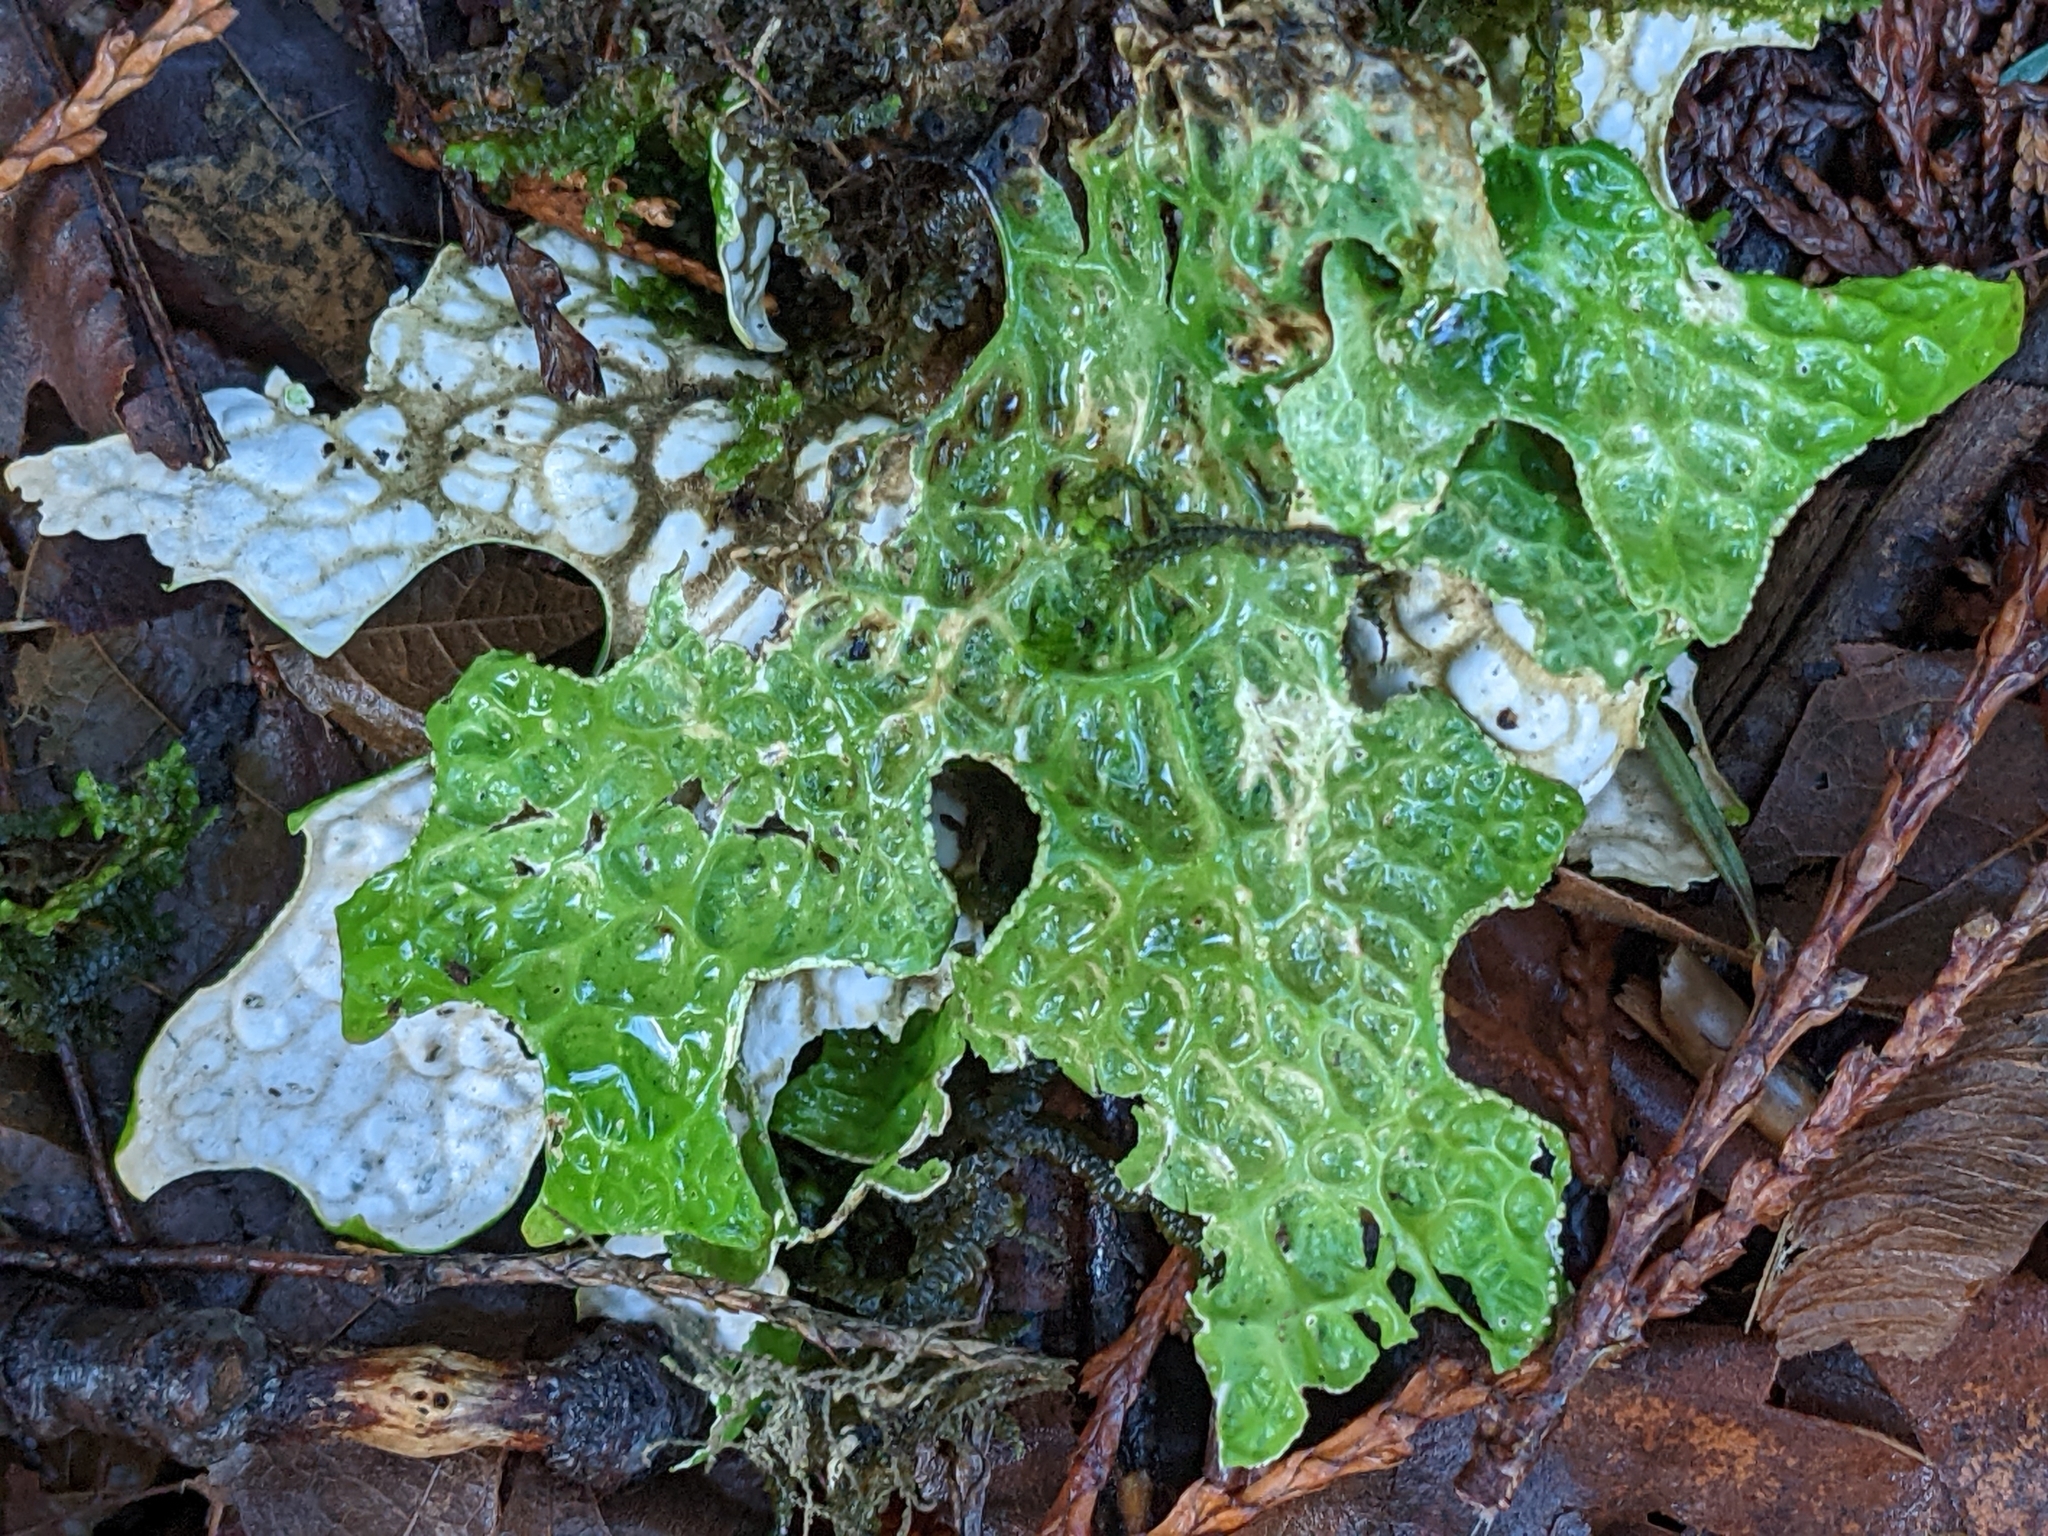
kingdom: Fungi
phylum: Ascomycota
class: Lecanoromycetes
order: Peltigerales
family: Lobariaceae
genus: Lobaria
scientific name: Lobaria pulmonaria
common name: Lungwort
